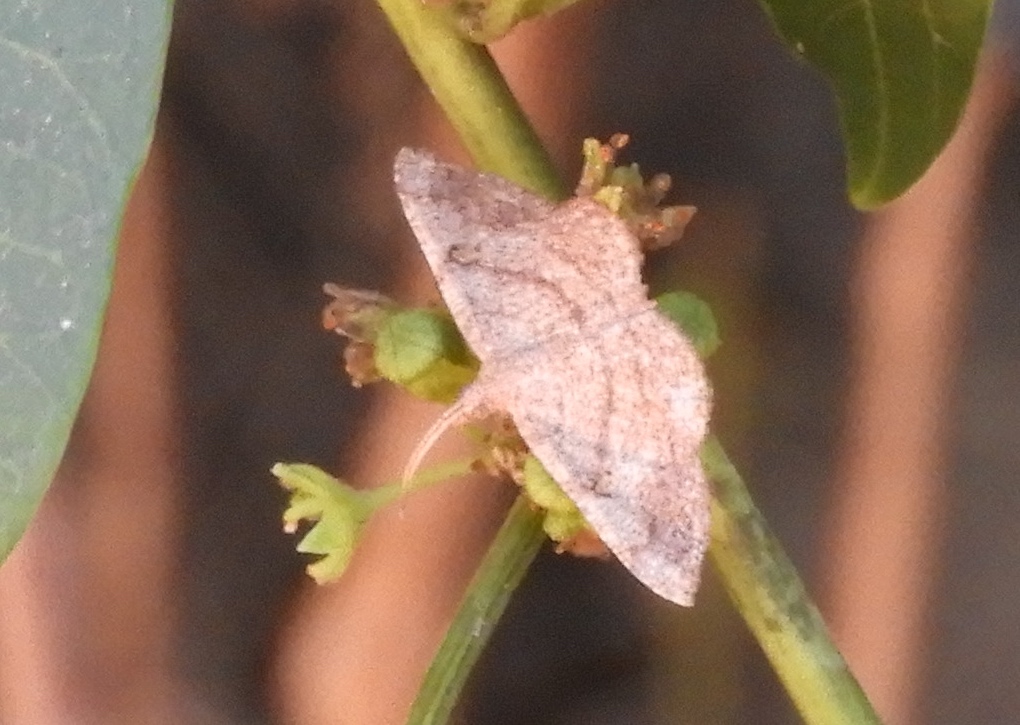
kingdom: Animalia
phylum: Arthropoda
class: Insecta
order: Lepidoptera
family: Geometridae
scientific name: Geometridae
